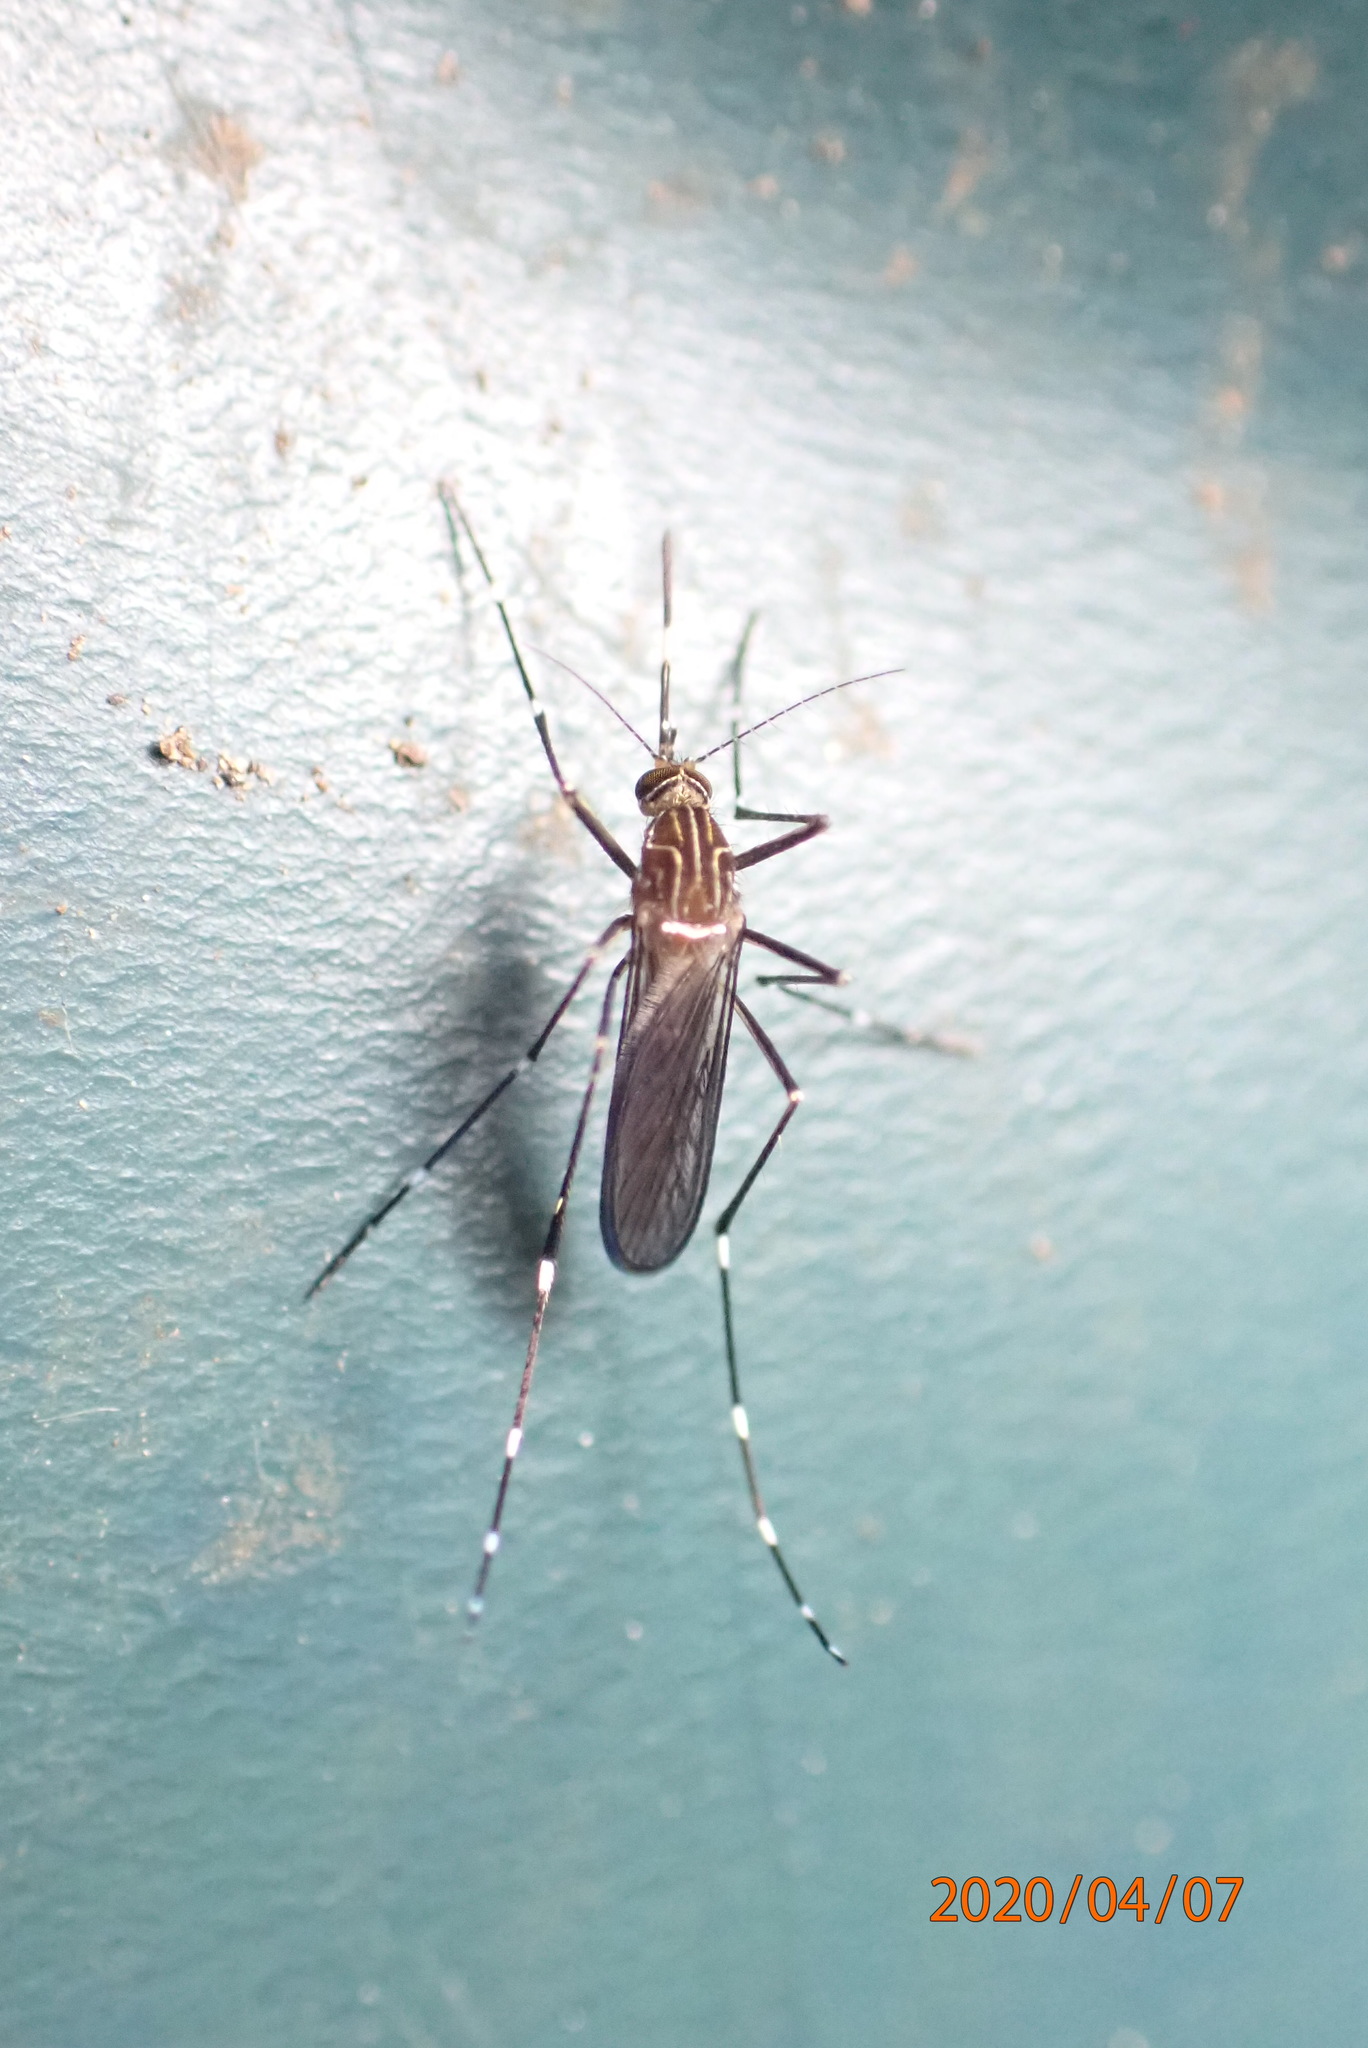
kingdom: Animalia
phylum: Arthropoda
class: Insecta
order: Diptera
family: Culicidae
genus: Aedes
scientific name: Aedes notoscriptus
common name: Australian backyard mosquito
